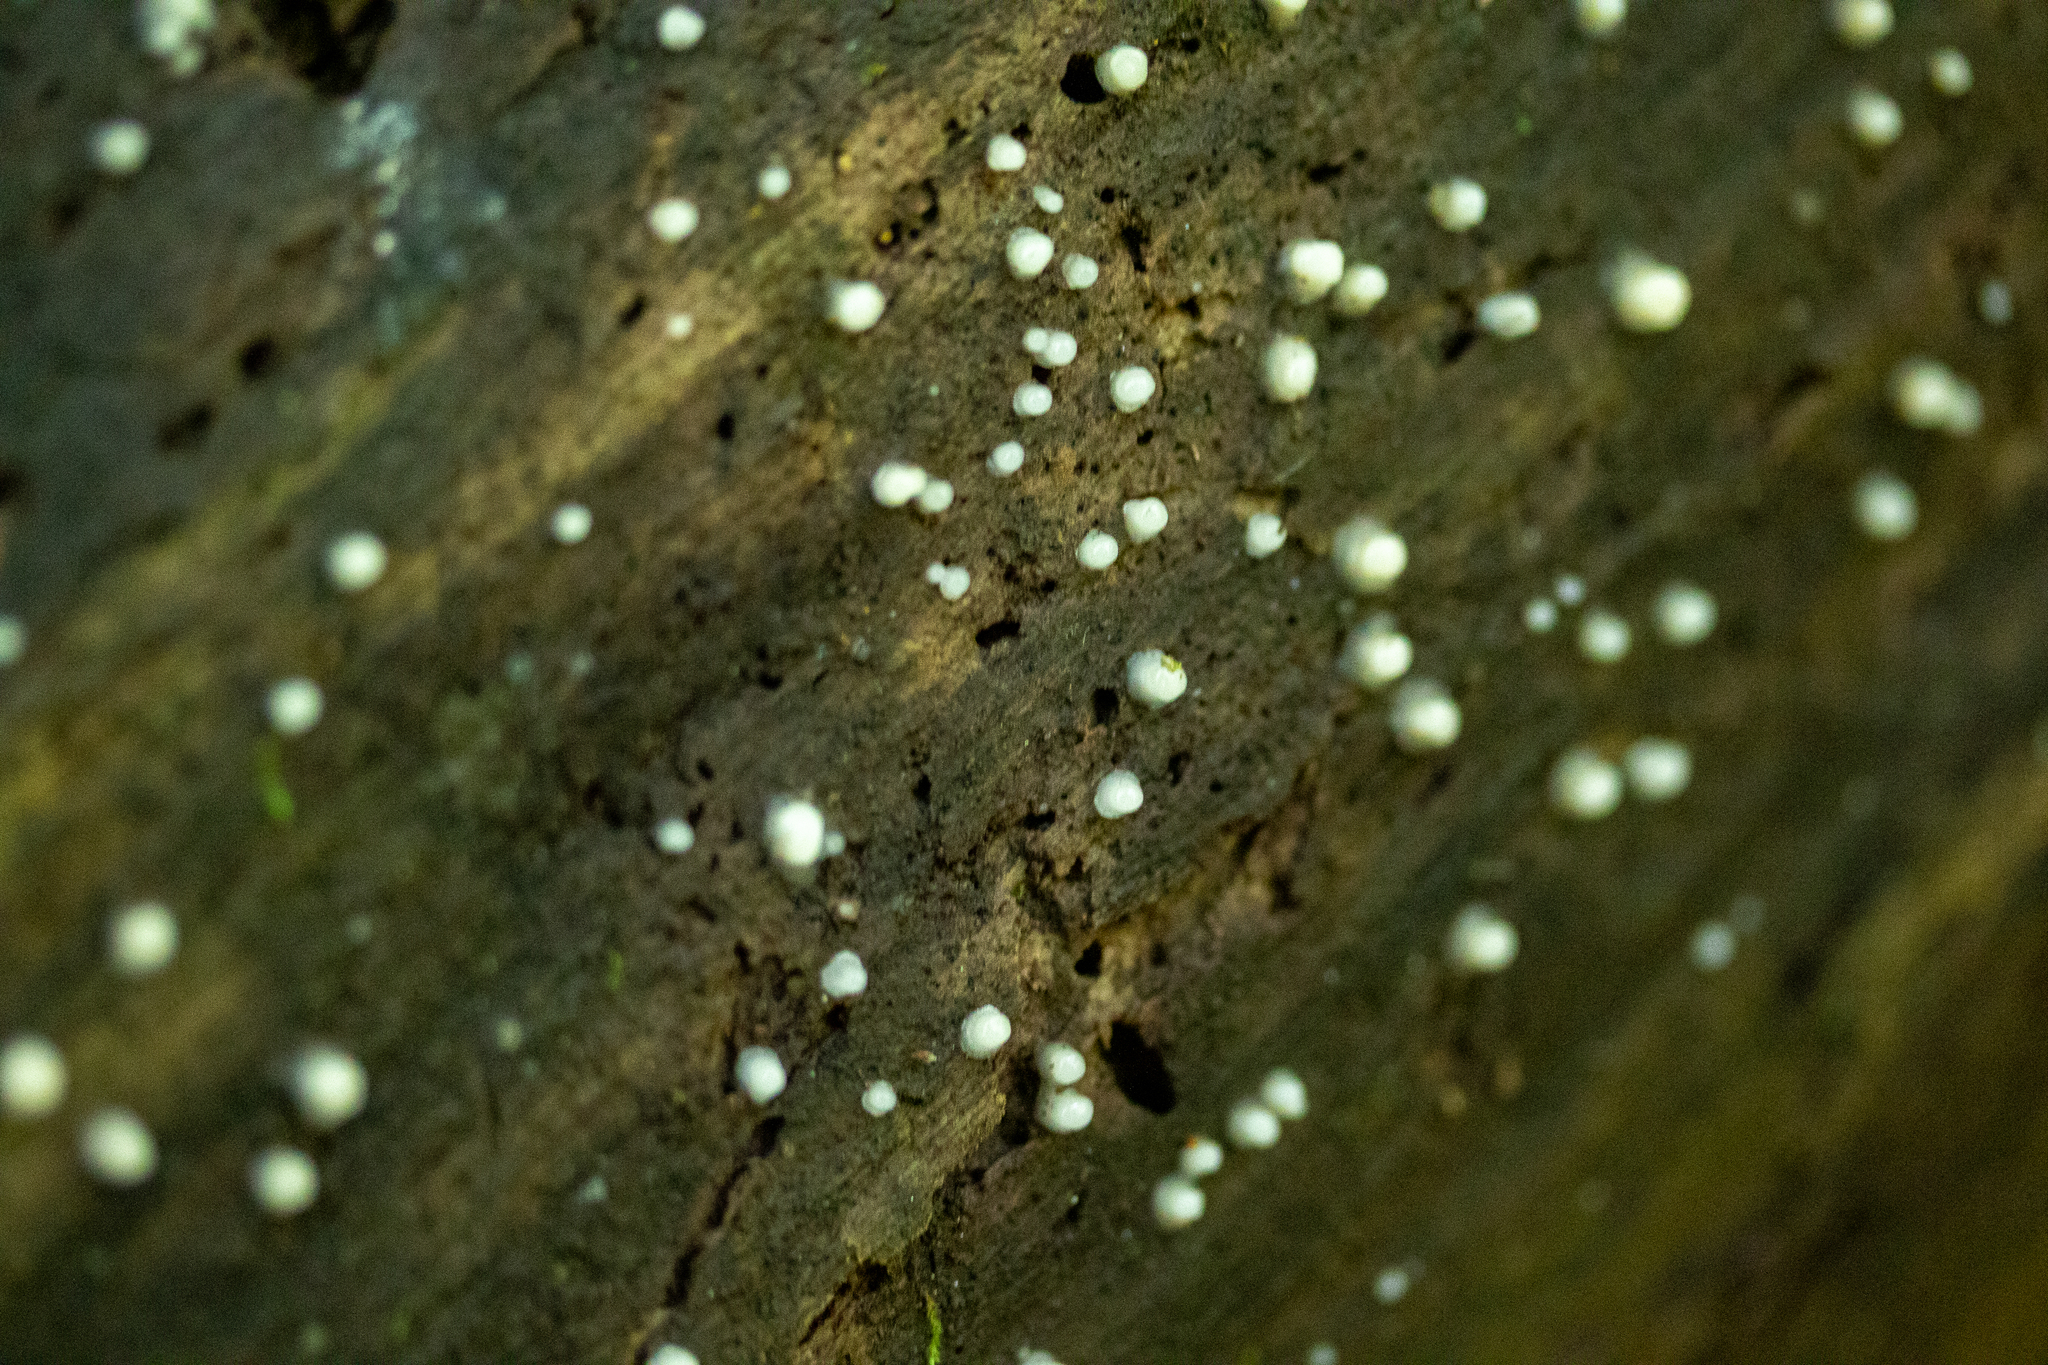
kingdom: Fungi
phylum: Basidiomycota
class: Atractiellomycetes
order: Atractiellales
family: Phleogenaceae
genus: Helicogloea
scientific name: Helicogloea compressa
